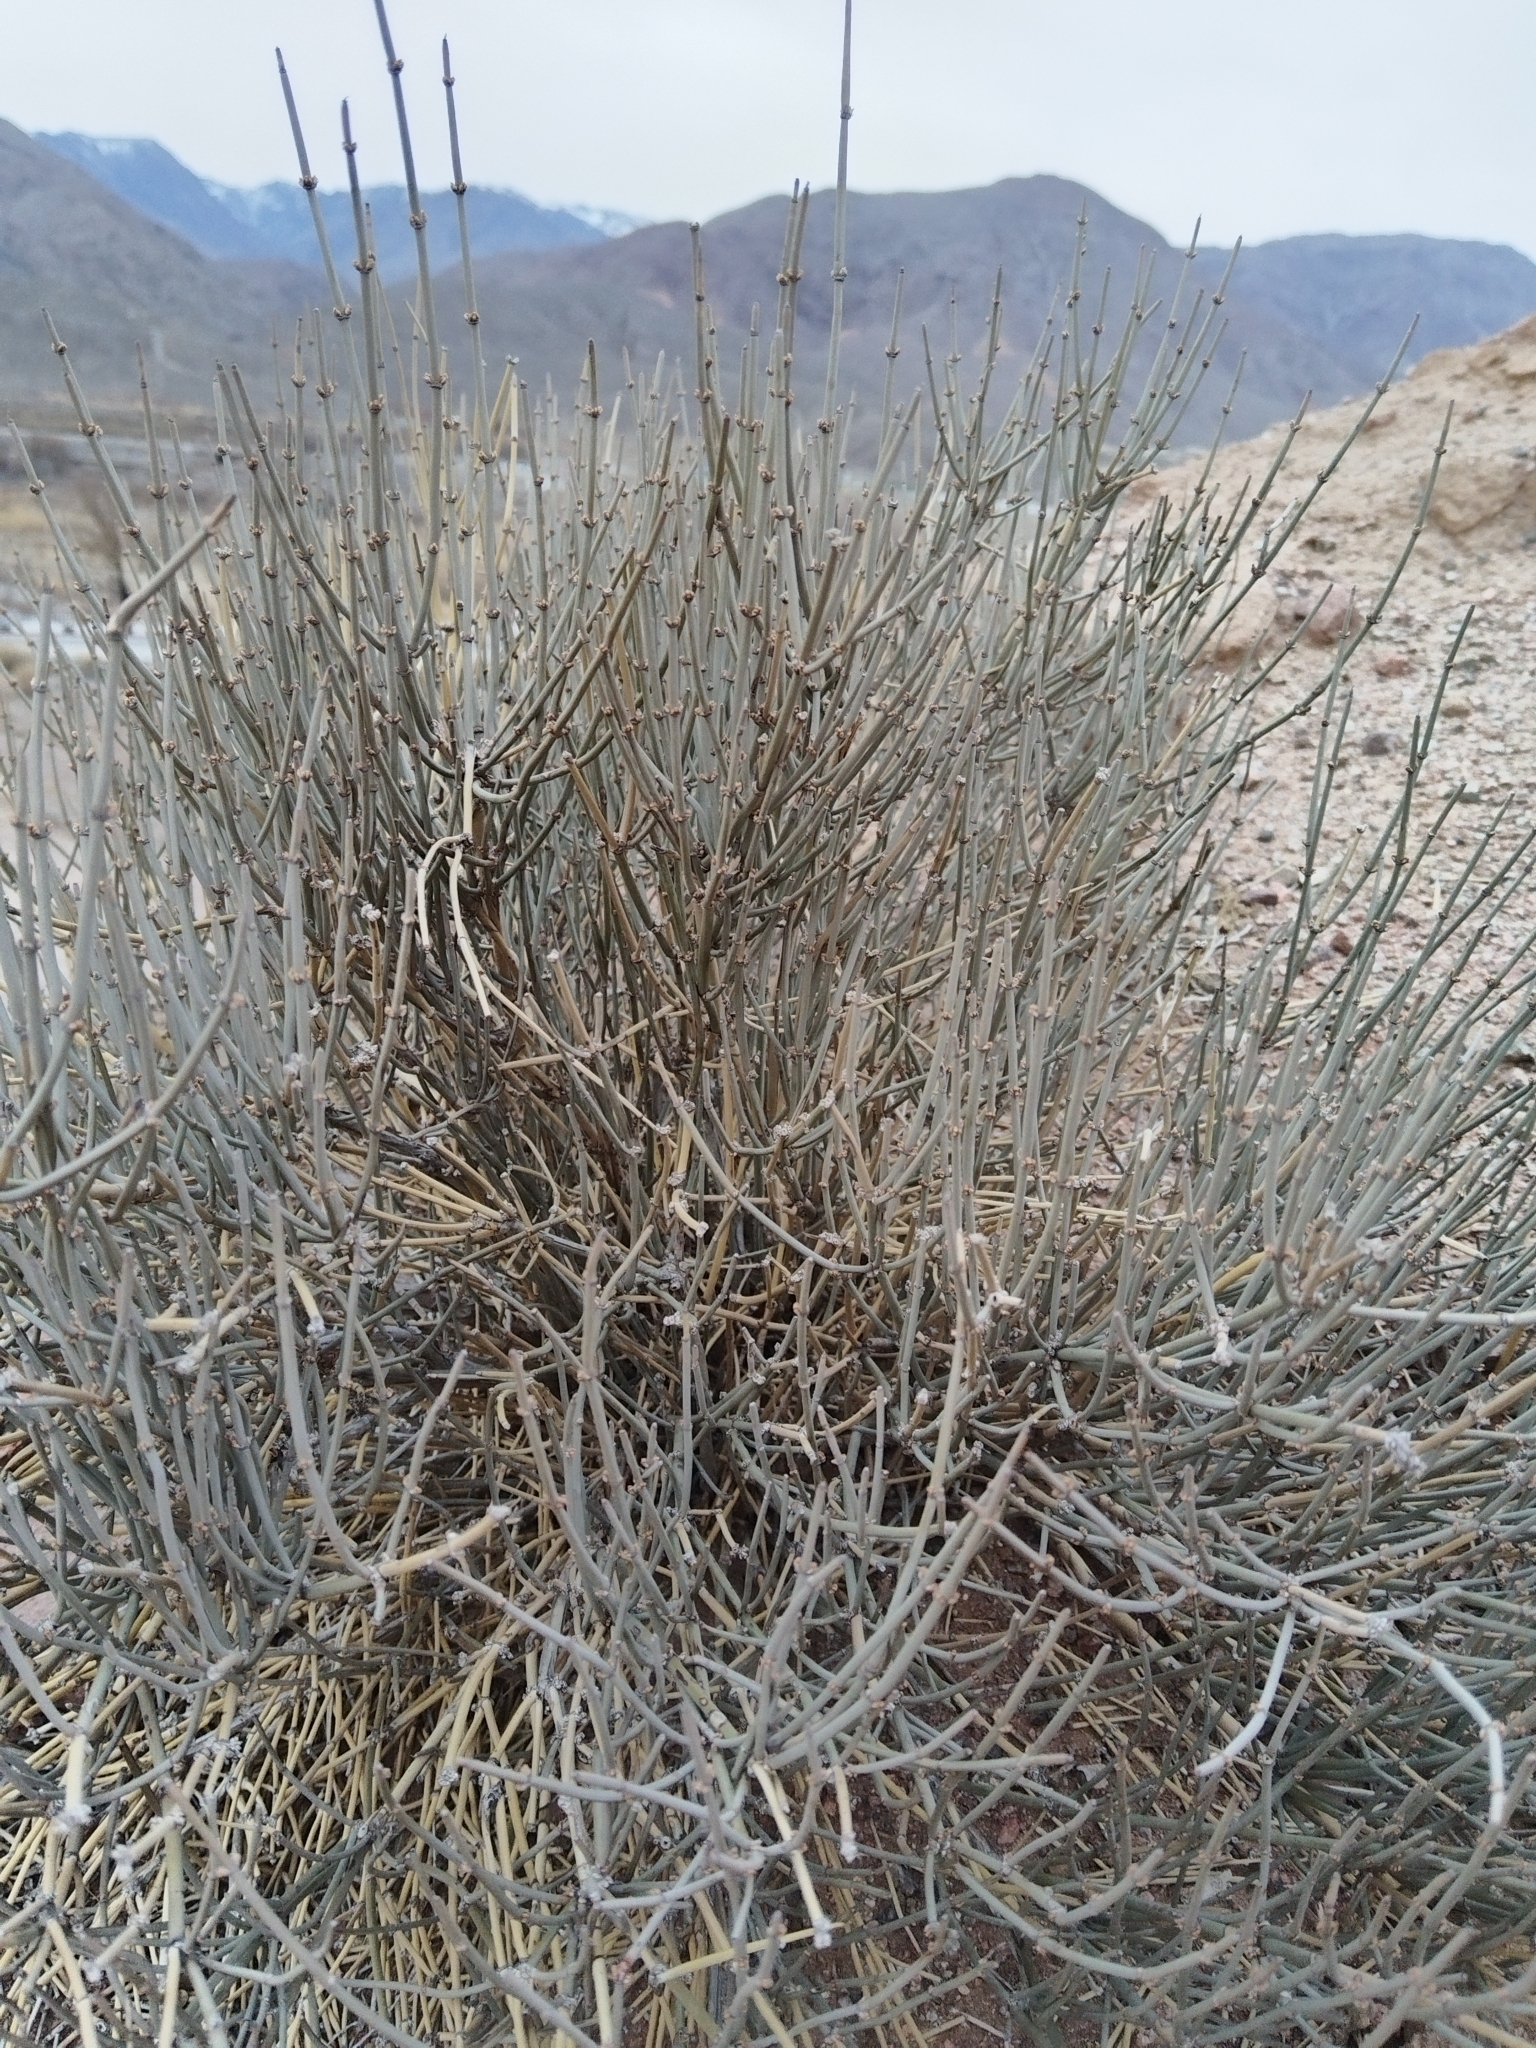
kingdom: Plantae
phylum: Tracheophyta
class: Gnetopsida
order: Ephedrales
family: Ephedraceae
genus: Ephedra
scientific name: Ephedra intermedia
